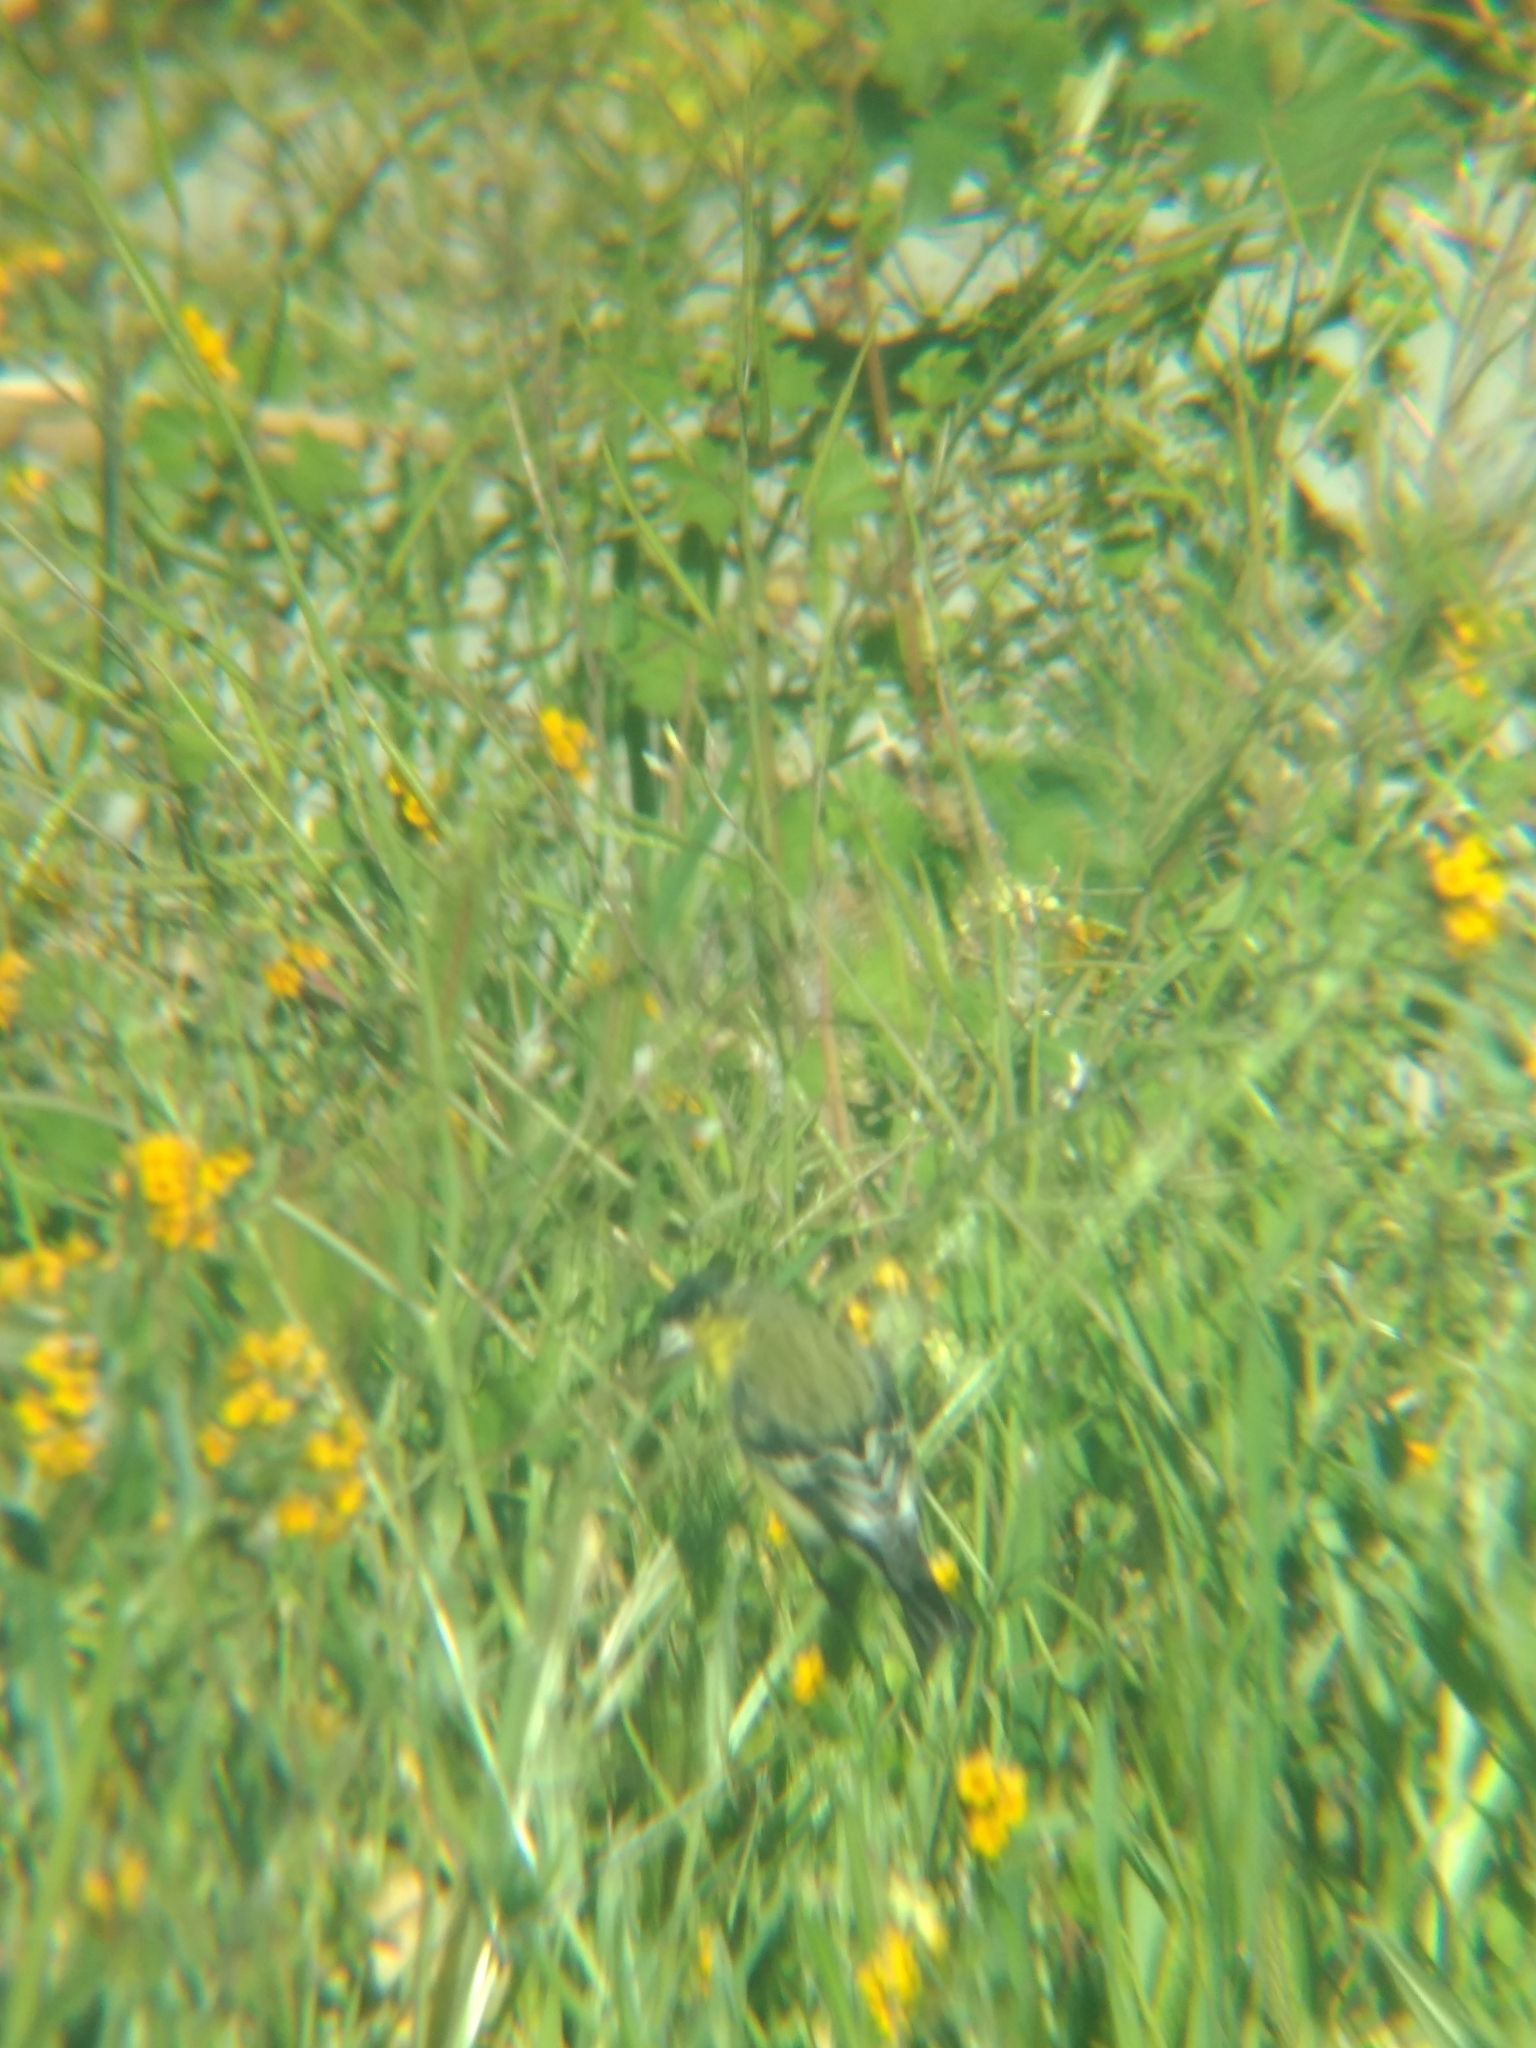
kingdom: Animalia
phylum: Chordata
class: Aves
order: Passeriformes
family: Fringillidae
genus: Spinus
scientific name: Spinus psaltria
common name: Lesser goldfinch
